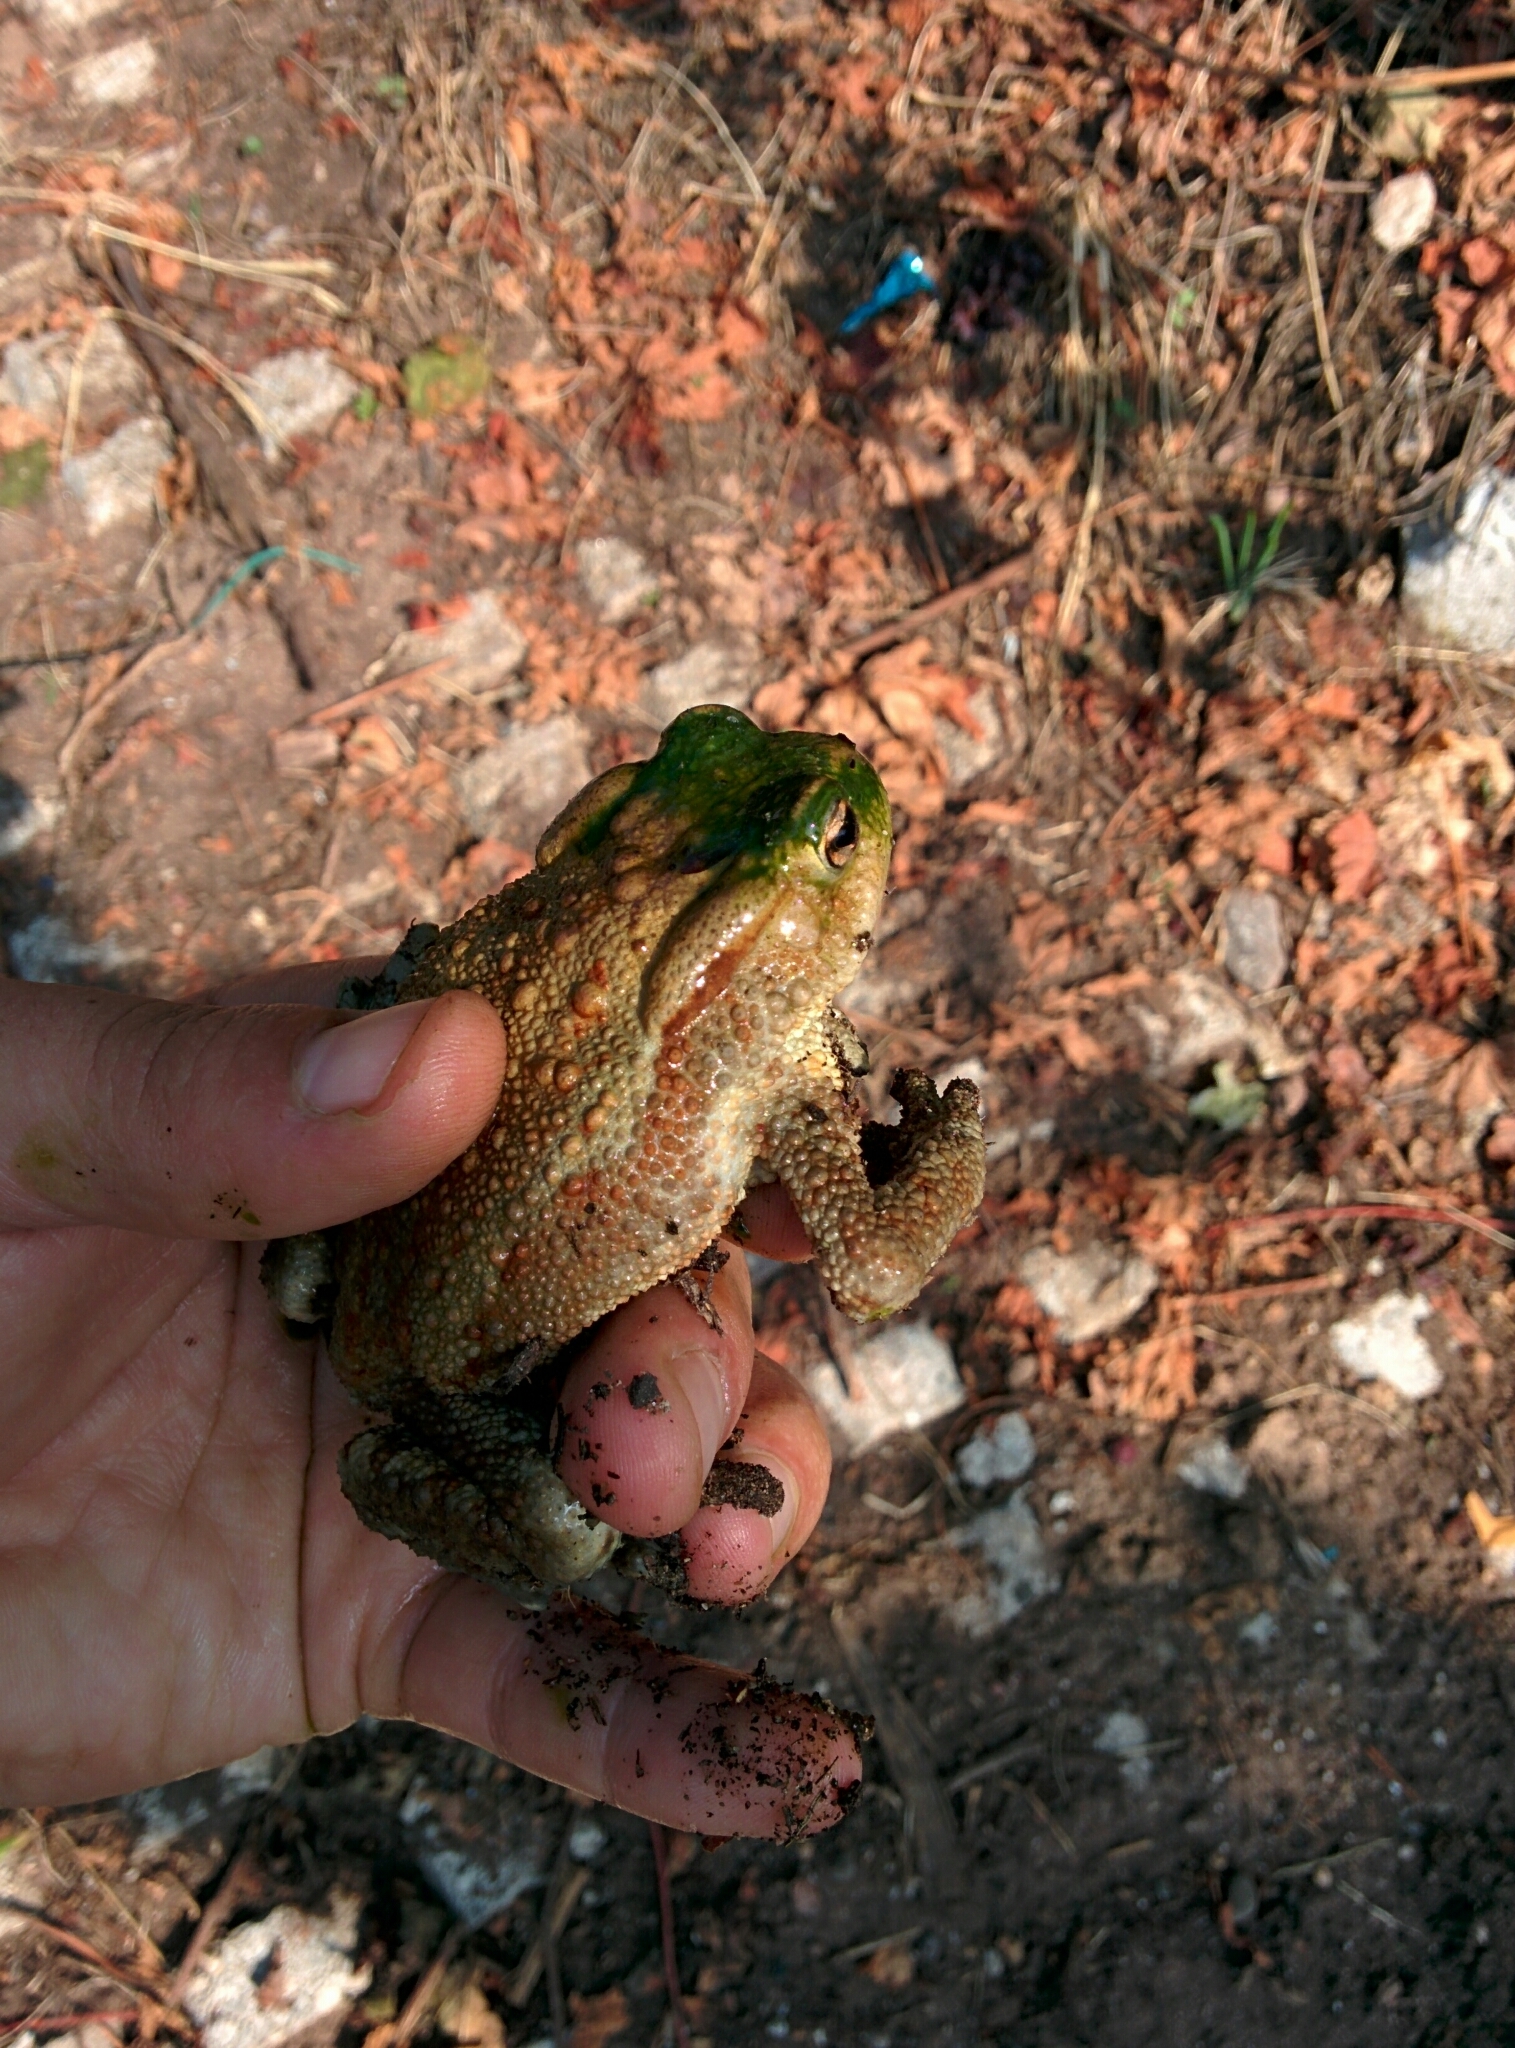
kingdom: Animalia
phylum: Chordata
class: Amphibia
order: Anura
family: Bufonidae
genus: Bufo
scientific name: Bufo bufo
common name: Common toad
